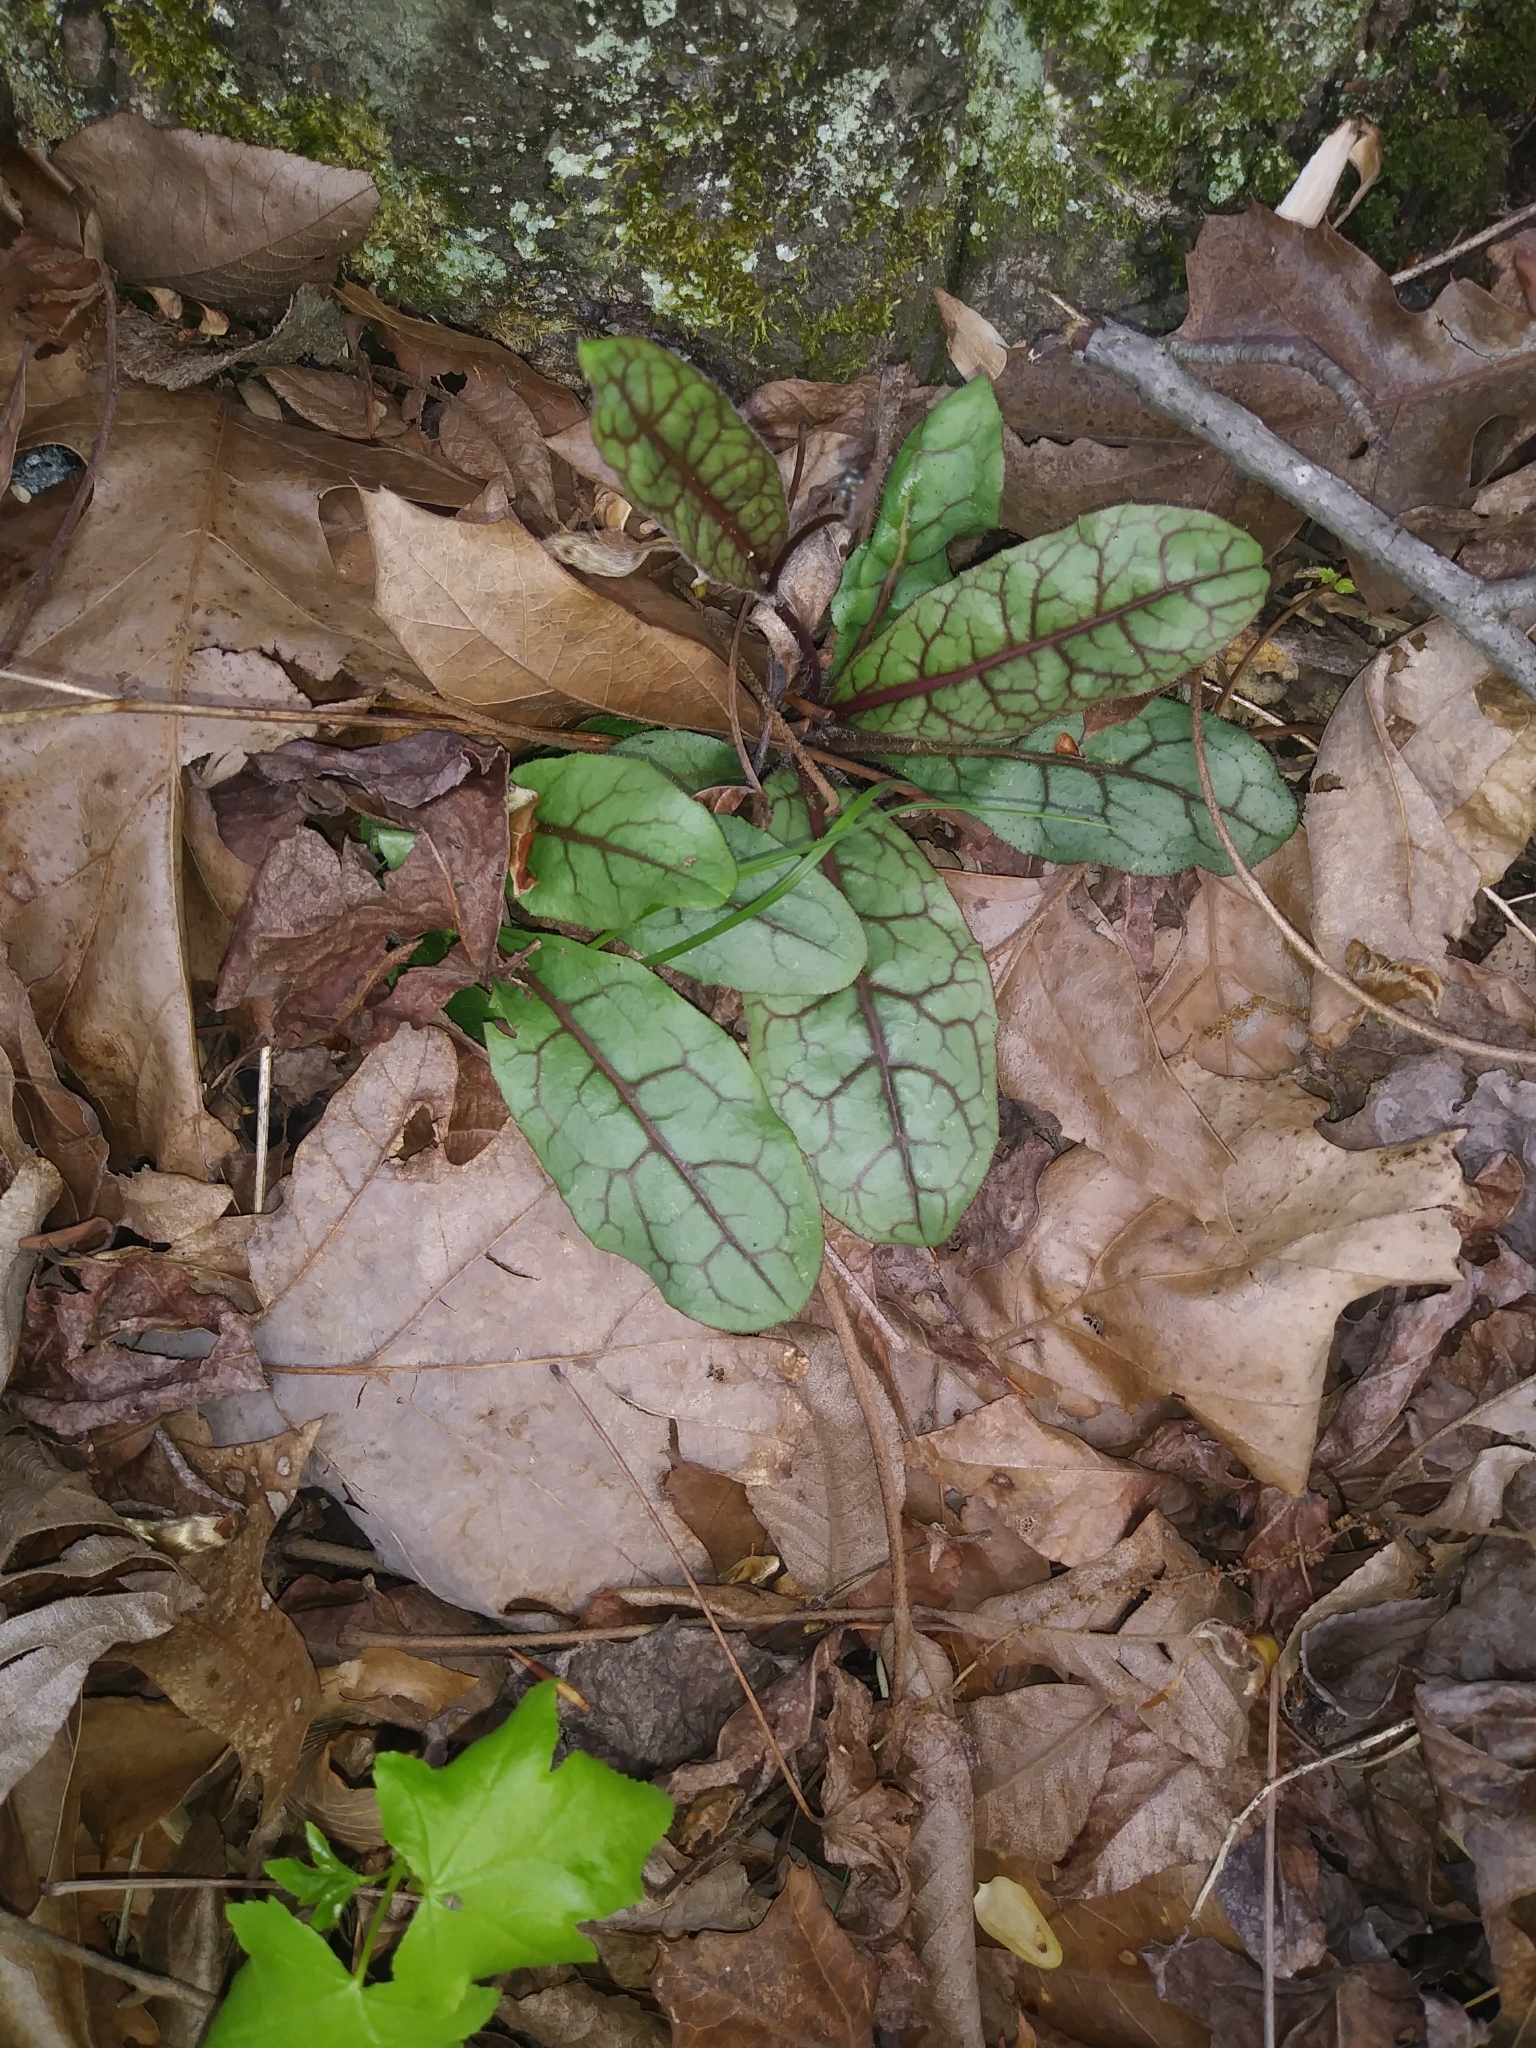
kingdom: Plantae
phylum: Tracheophyta
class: Magnoliopsida
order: Asterales
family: Asteraceae
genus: Hieracium
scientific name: Hieracium venosum
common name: Rattlesnake hawkweed
